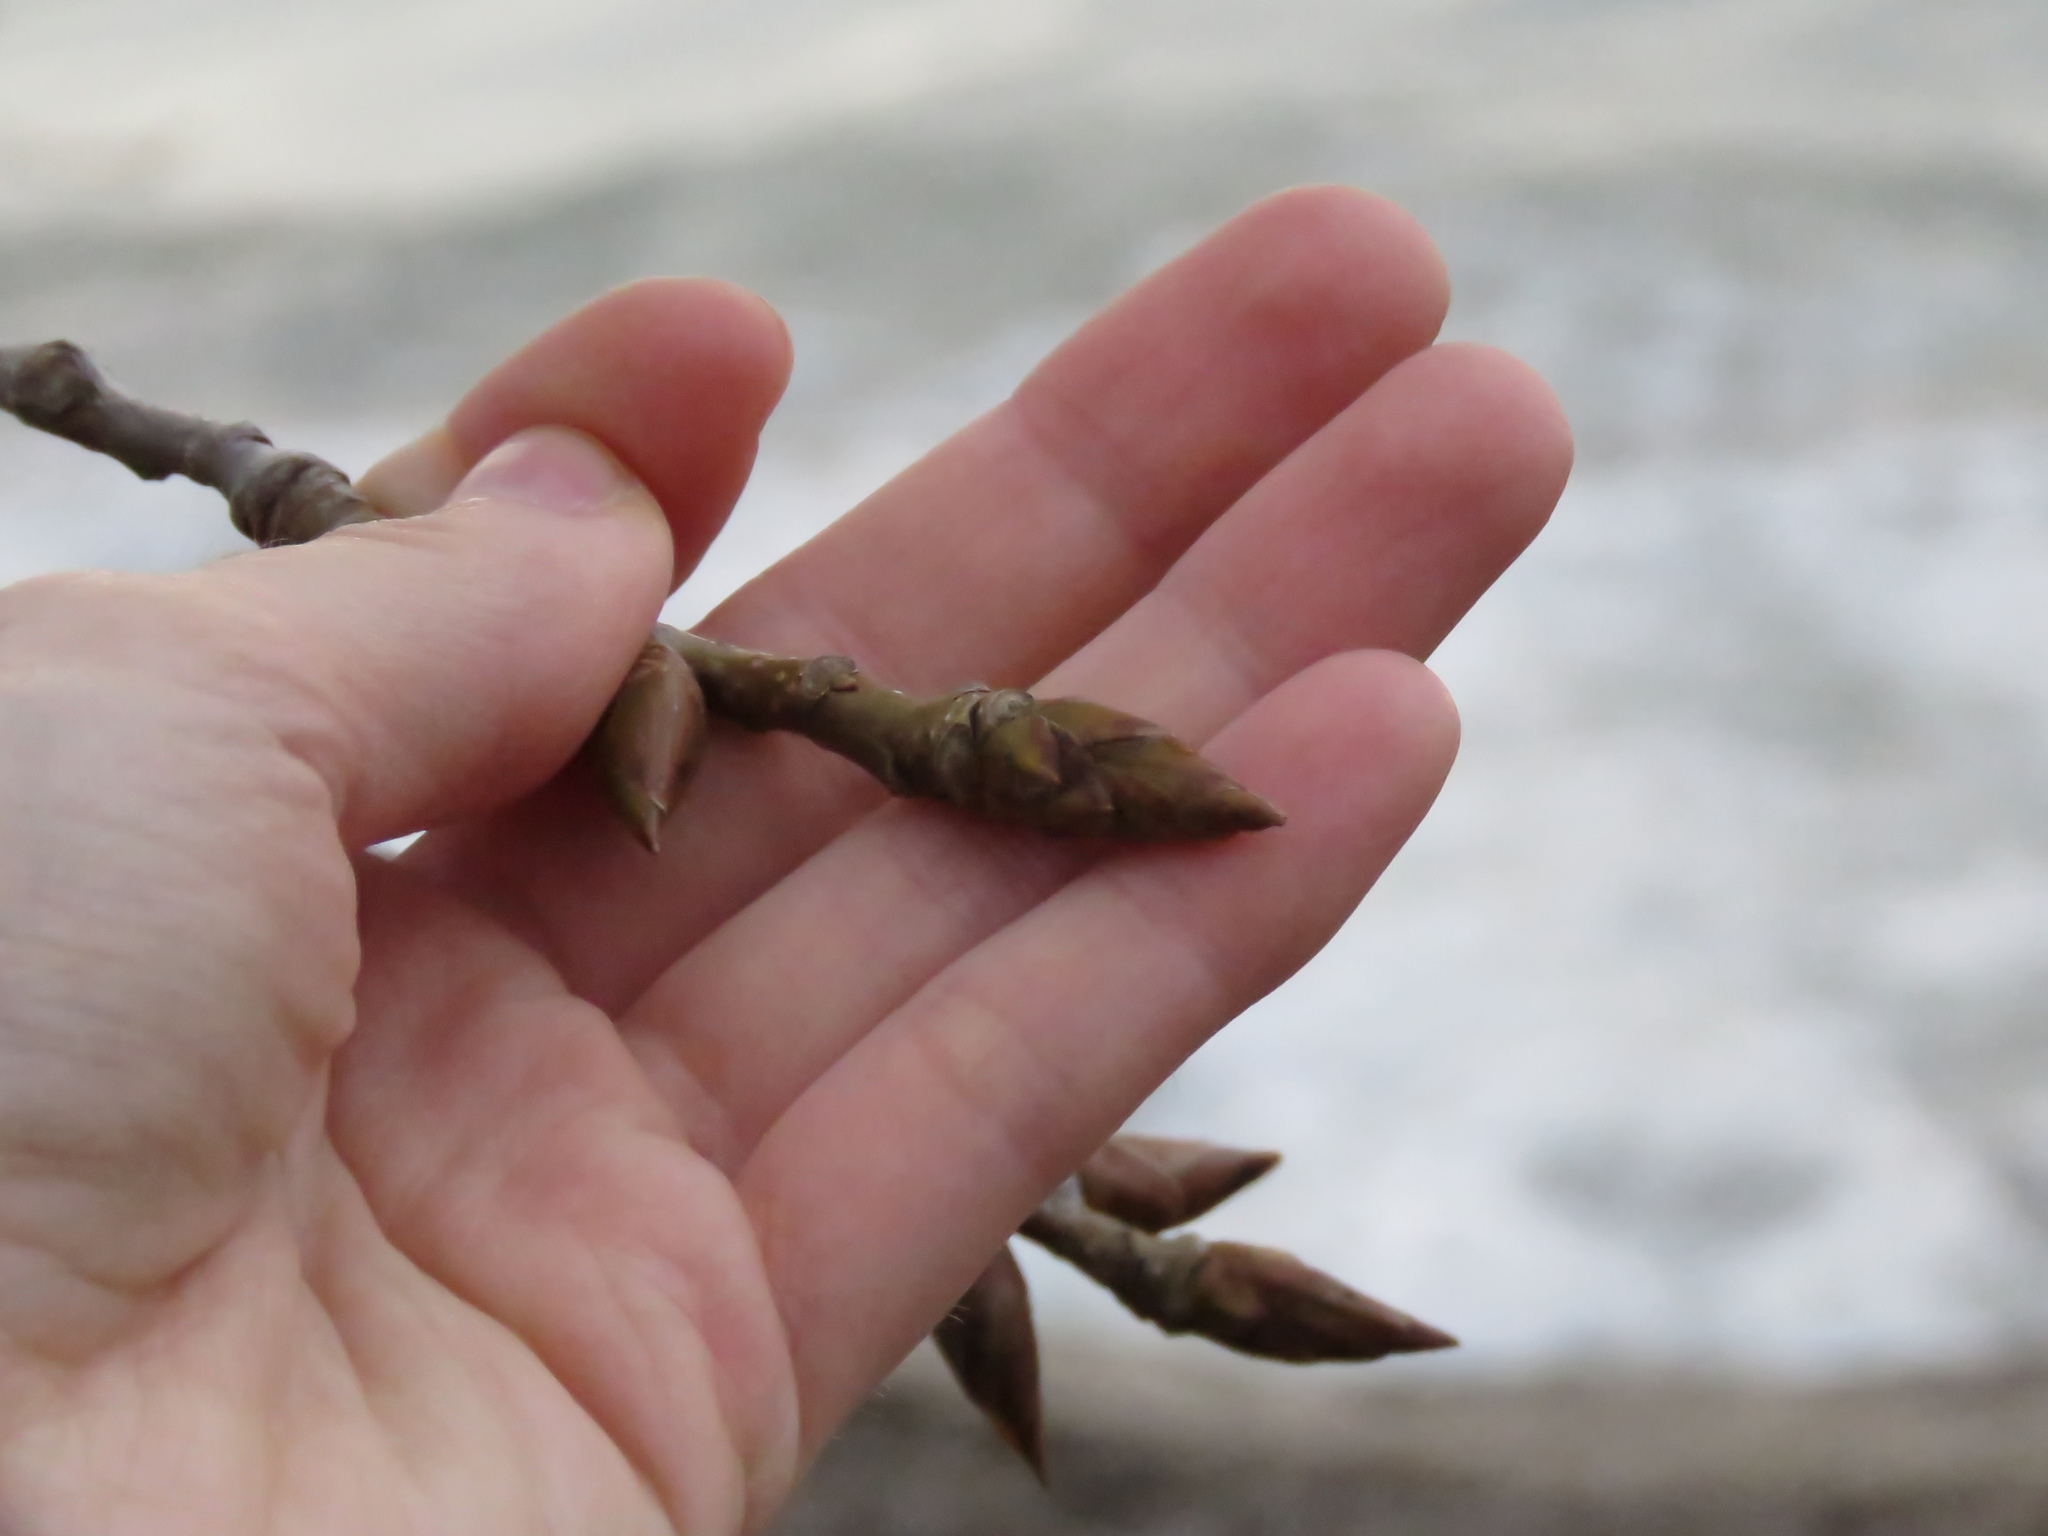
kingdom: Plantae
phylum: Tracheophyta
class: Magnoliopsida
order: Malpighiales
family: Salicaceae
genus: Populus
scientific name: Populus deltoides
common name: Eastern cottonwood
